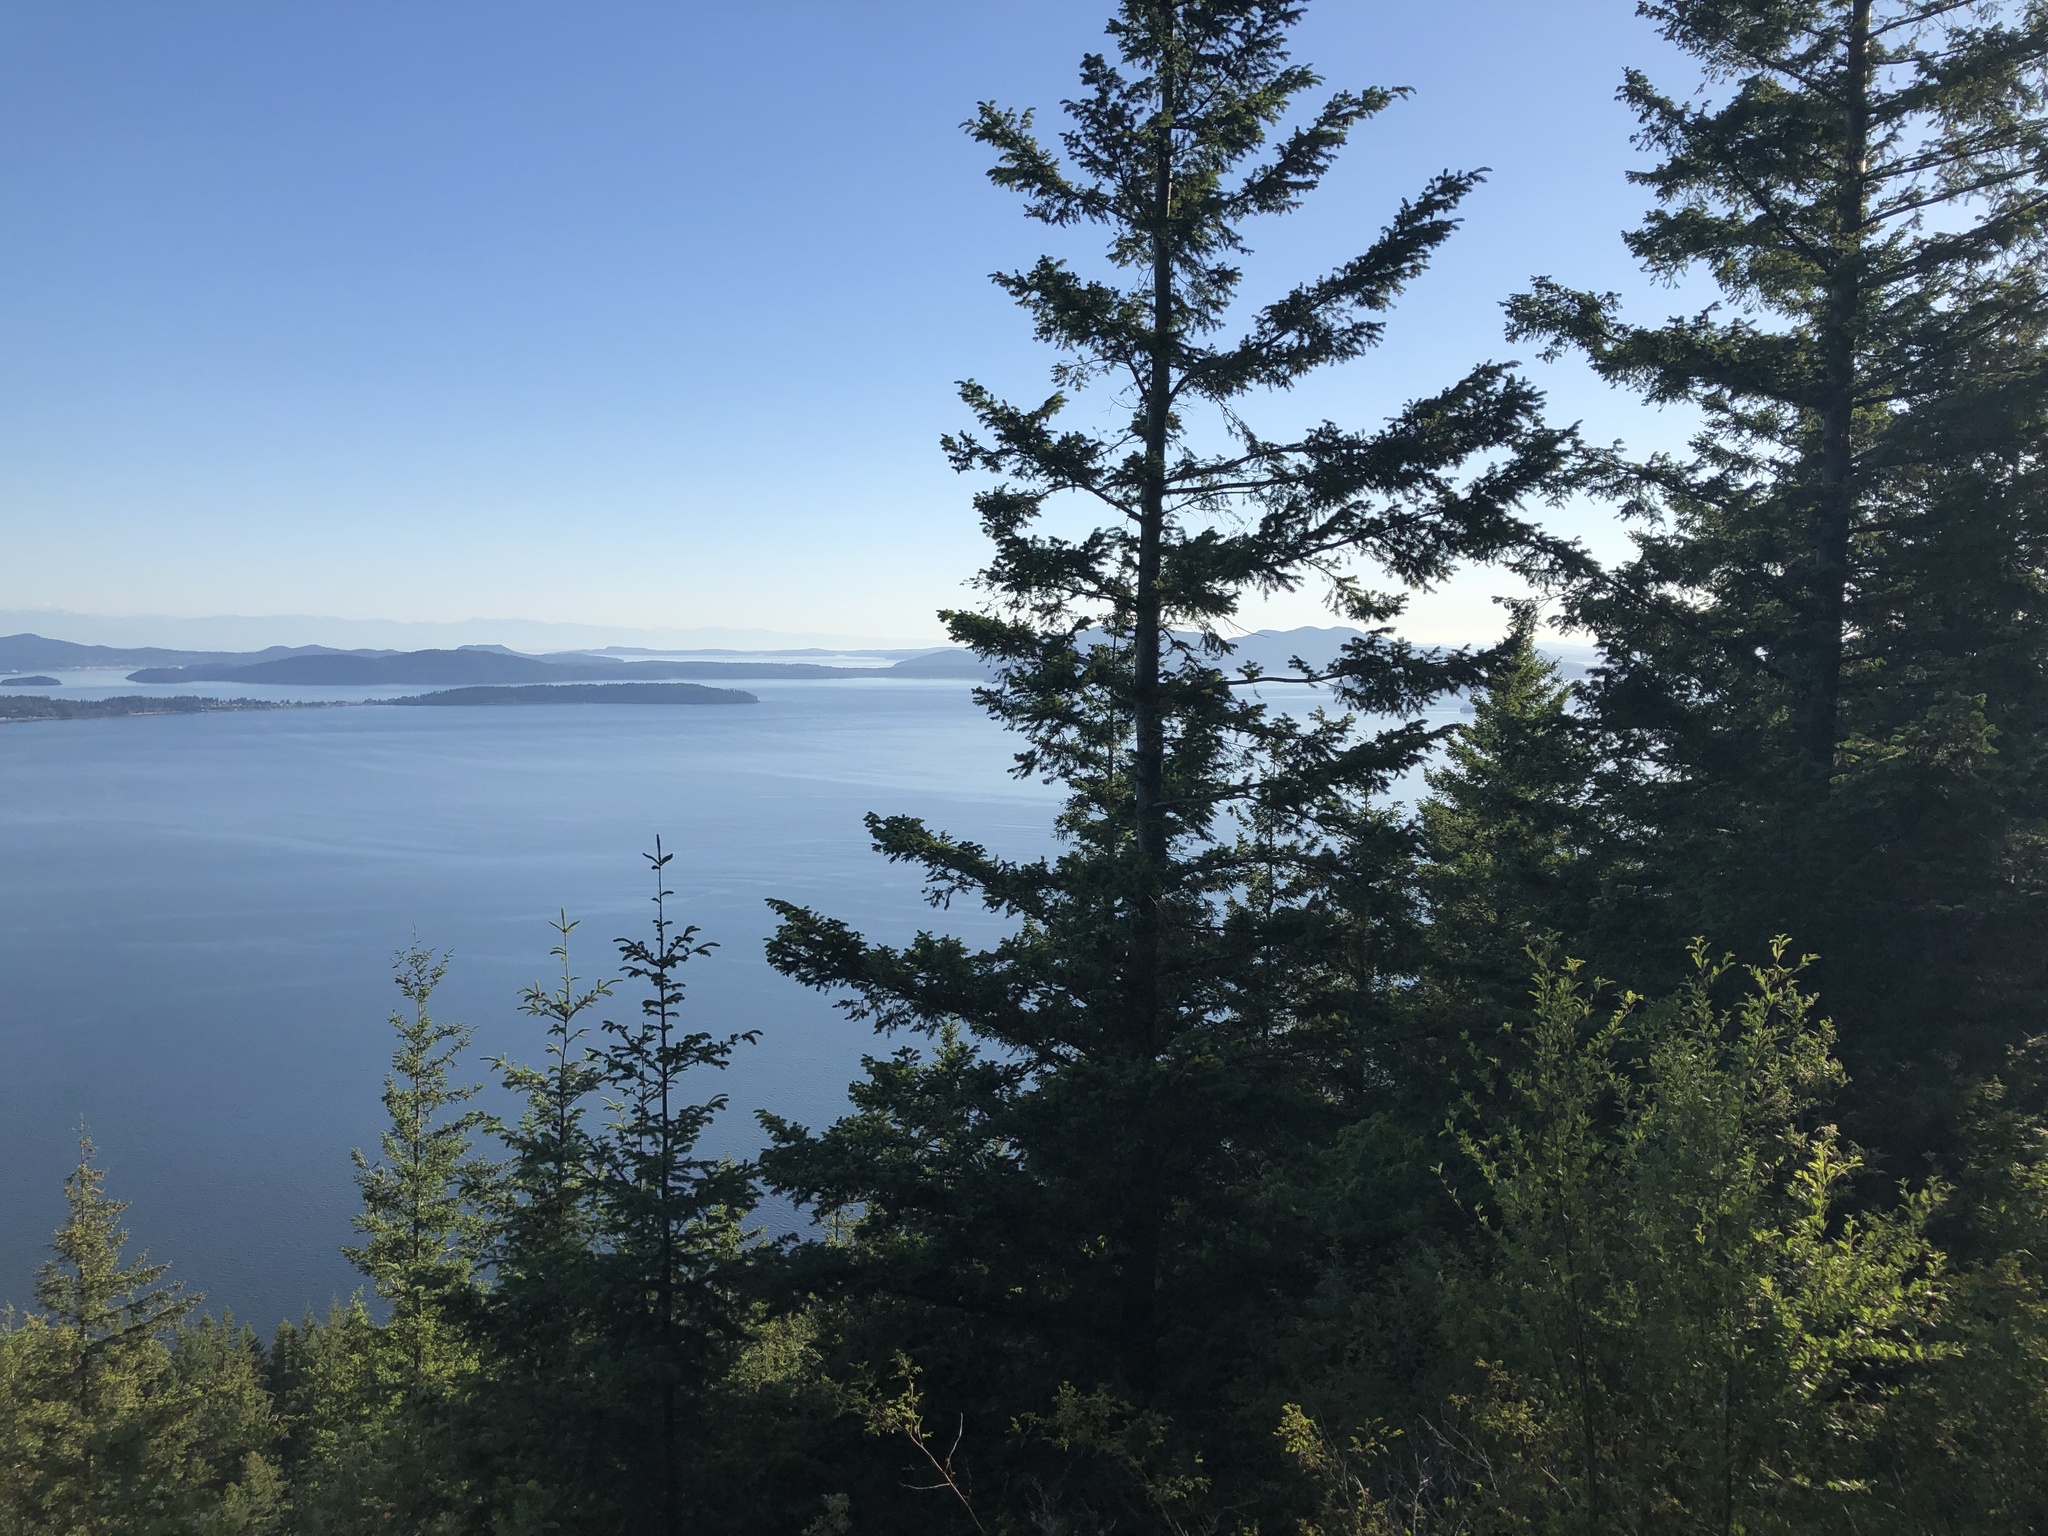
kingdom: Plantae
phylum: Tracheophyta
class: Pinopsida
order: Pinales
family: Pinaceae
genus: Pseudotsuga
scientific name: Pseudotsuga menziesii
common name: Douglas fir
